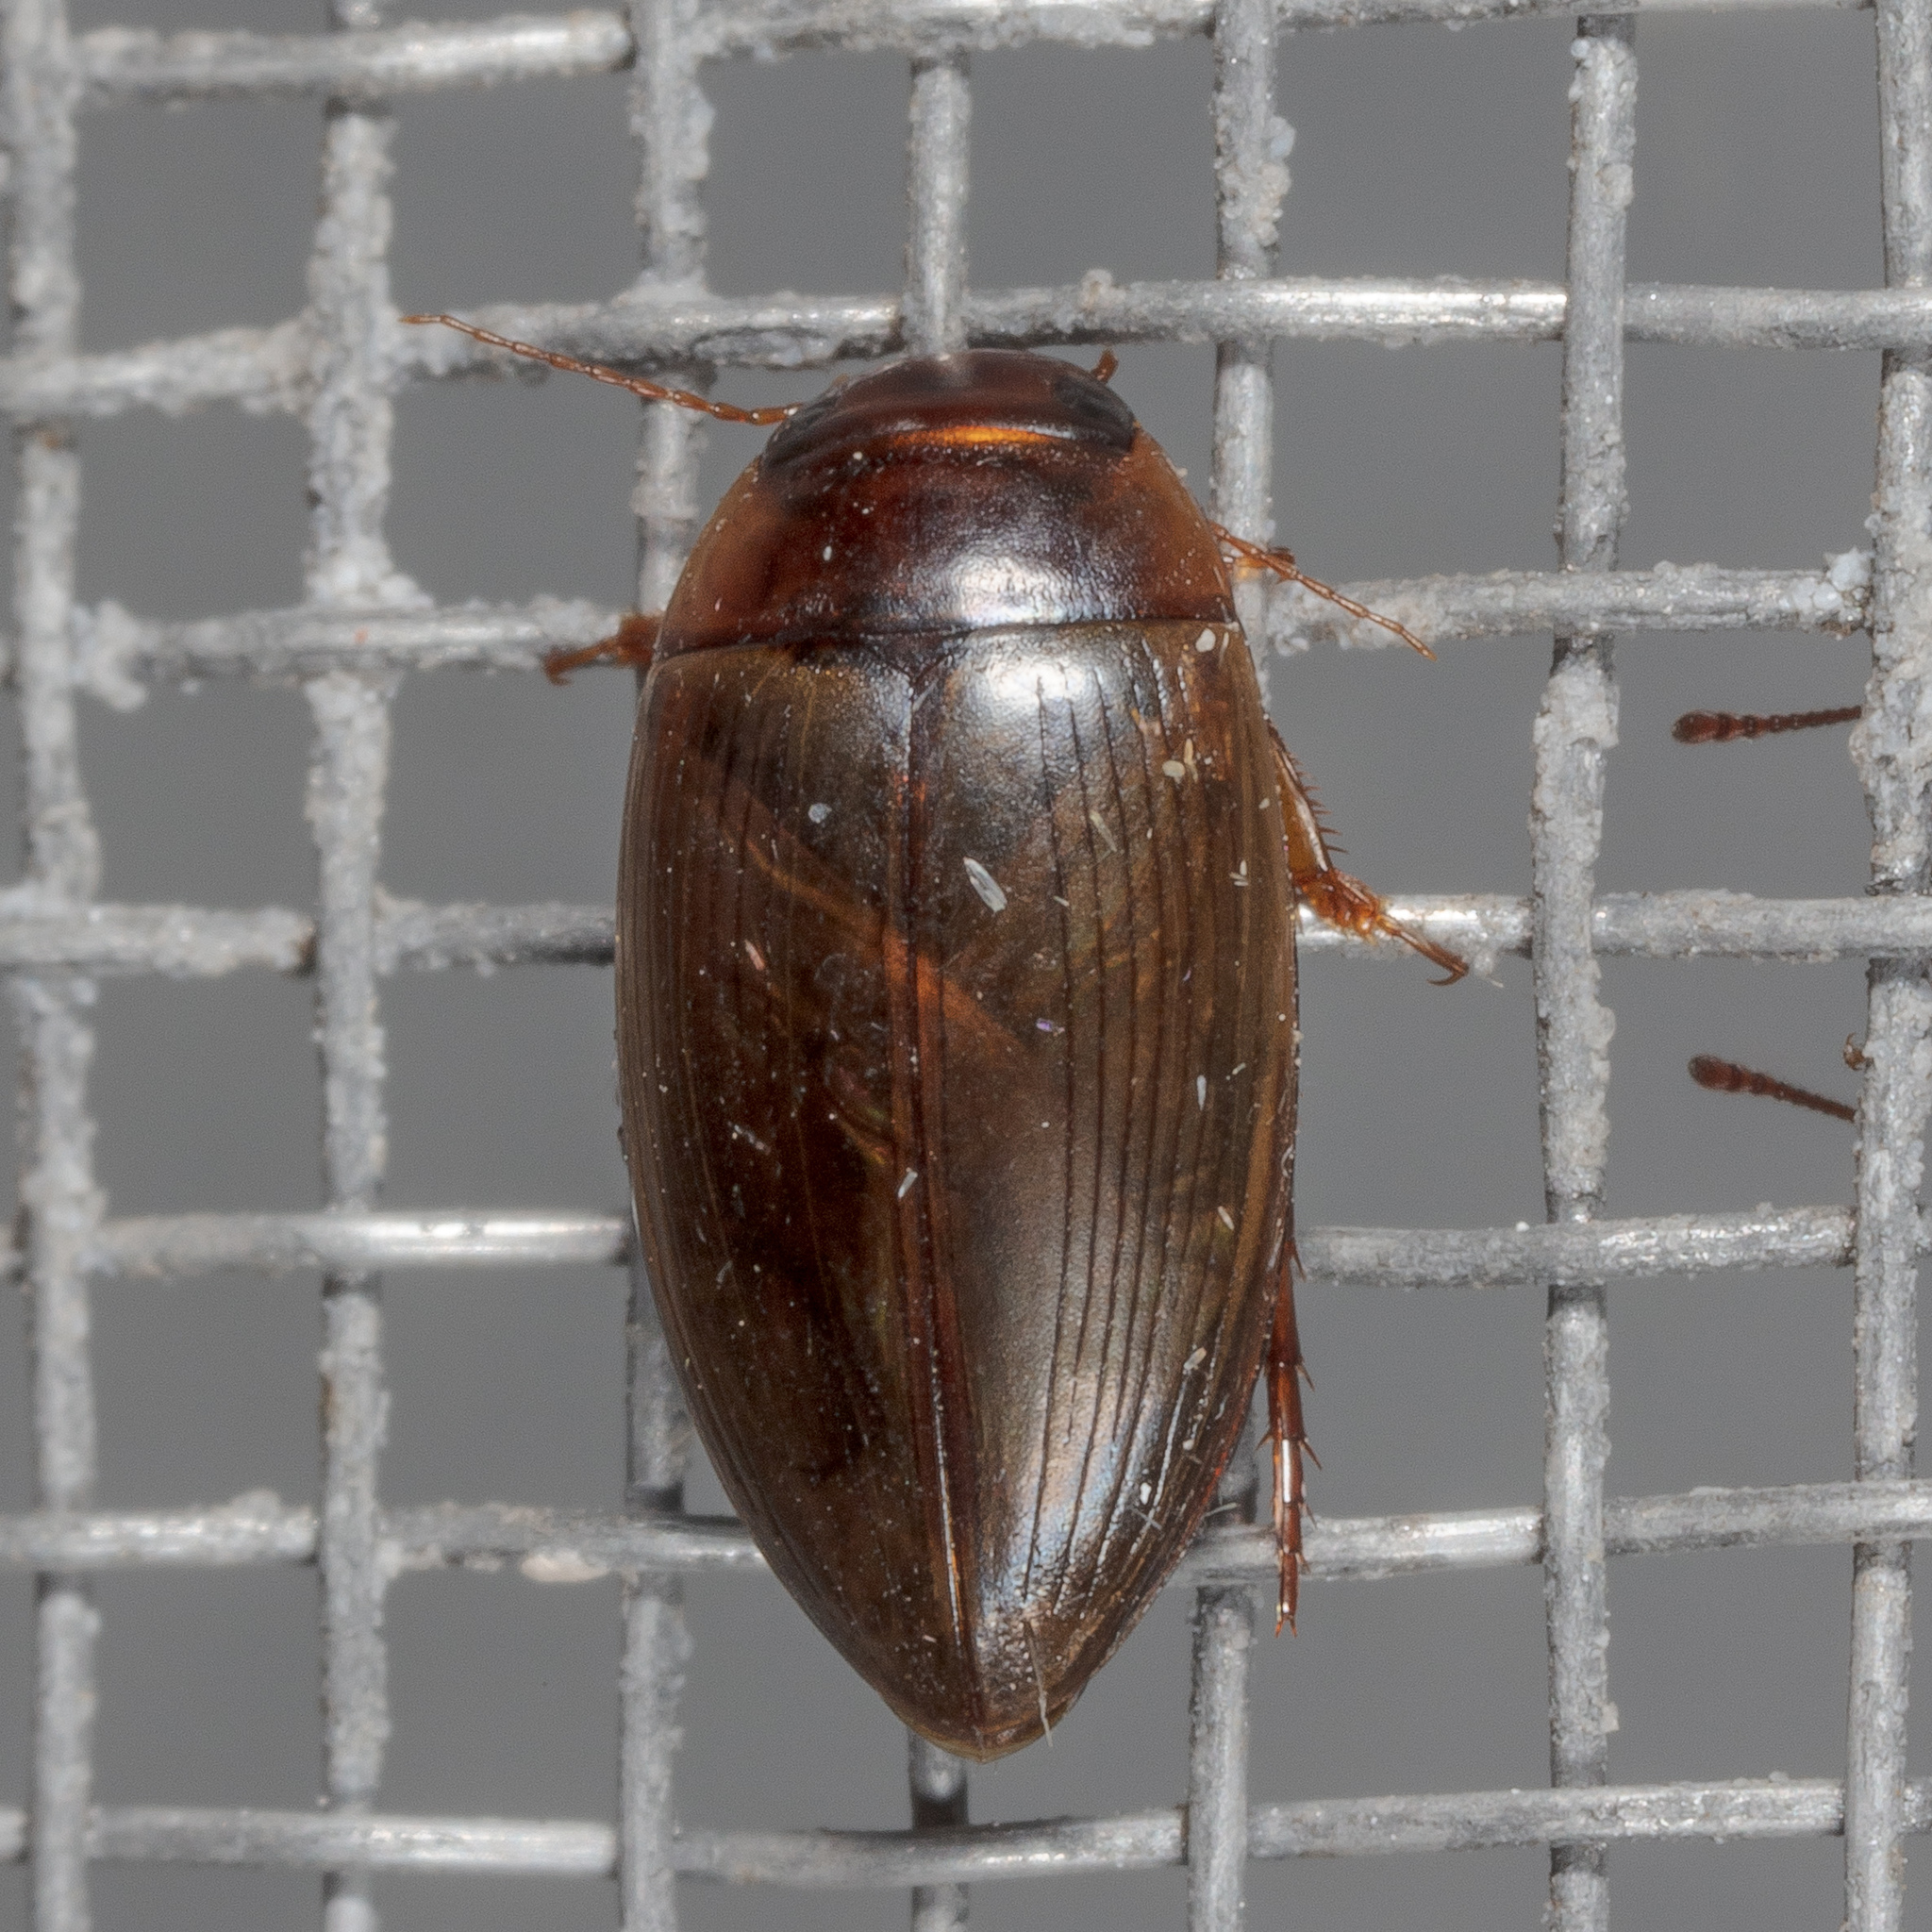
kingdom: Animalia
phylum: Arthropoda
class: Insecta
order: Coleoptera
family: Dytiscidae
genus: Copelatus
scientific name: Copelatus chevrolati
